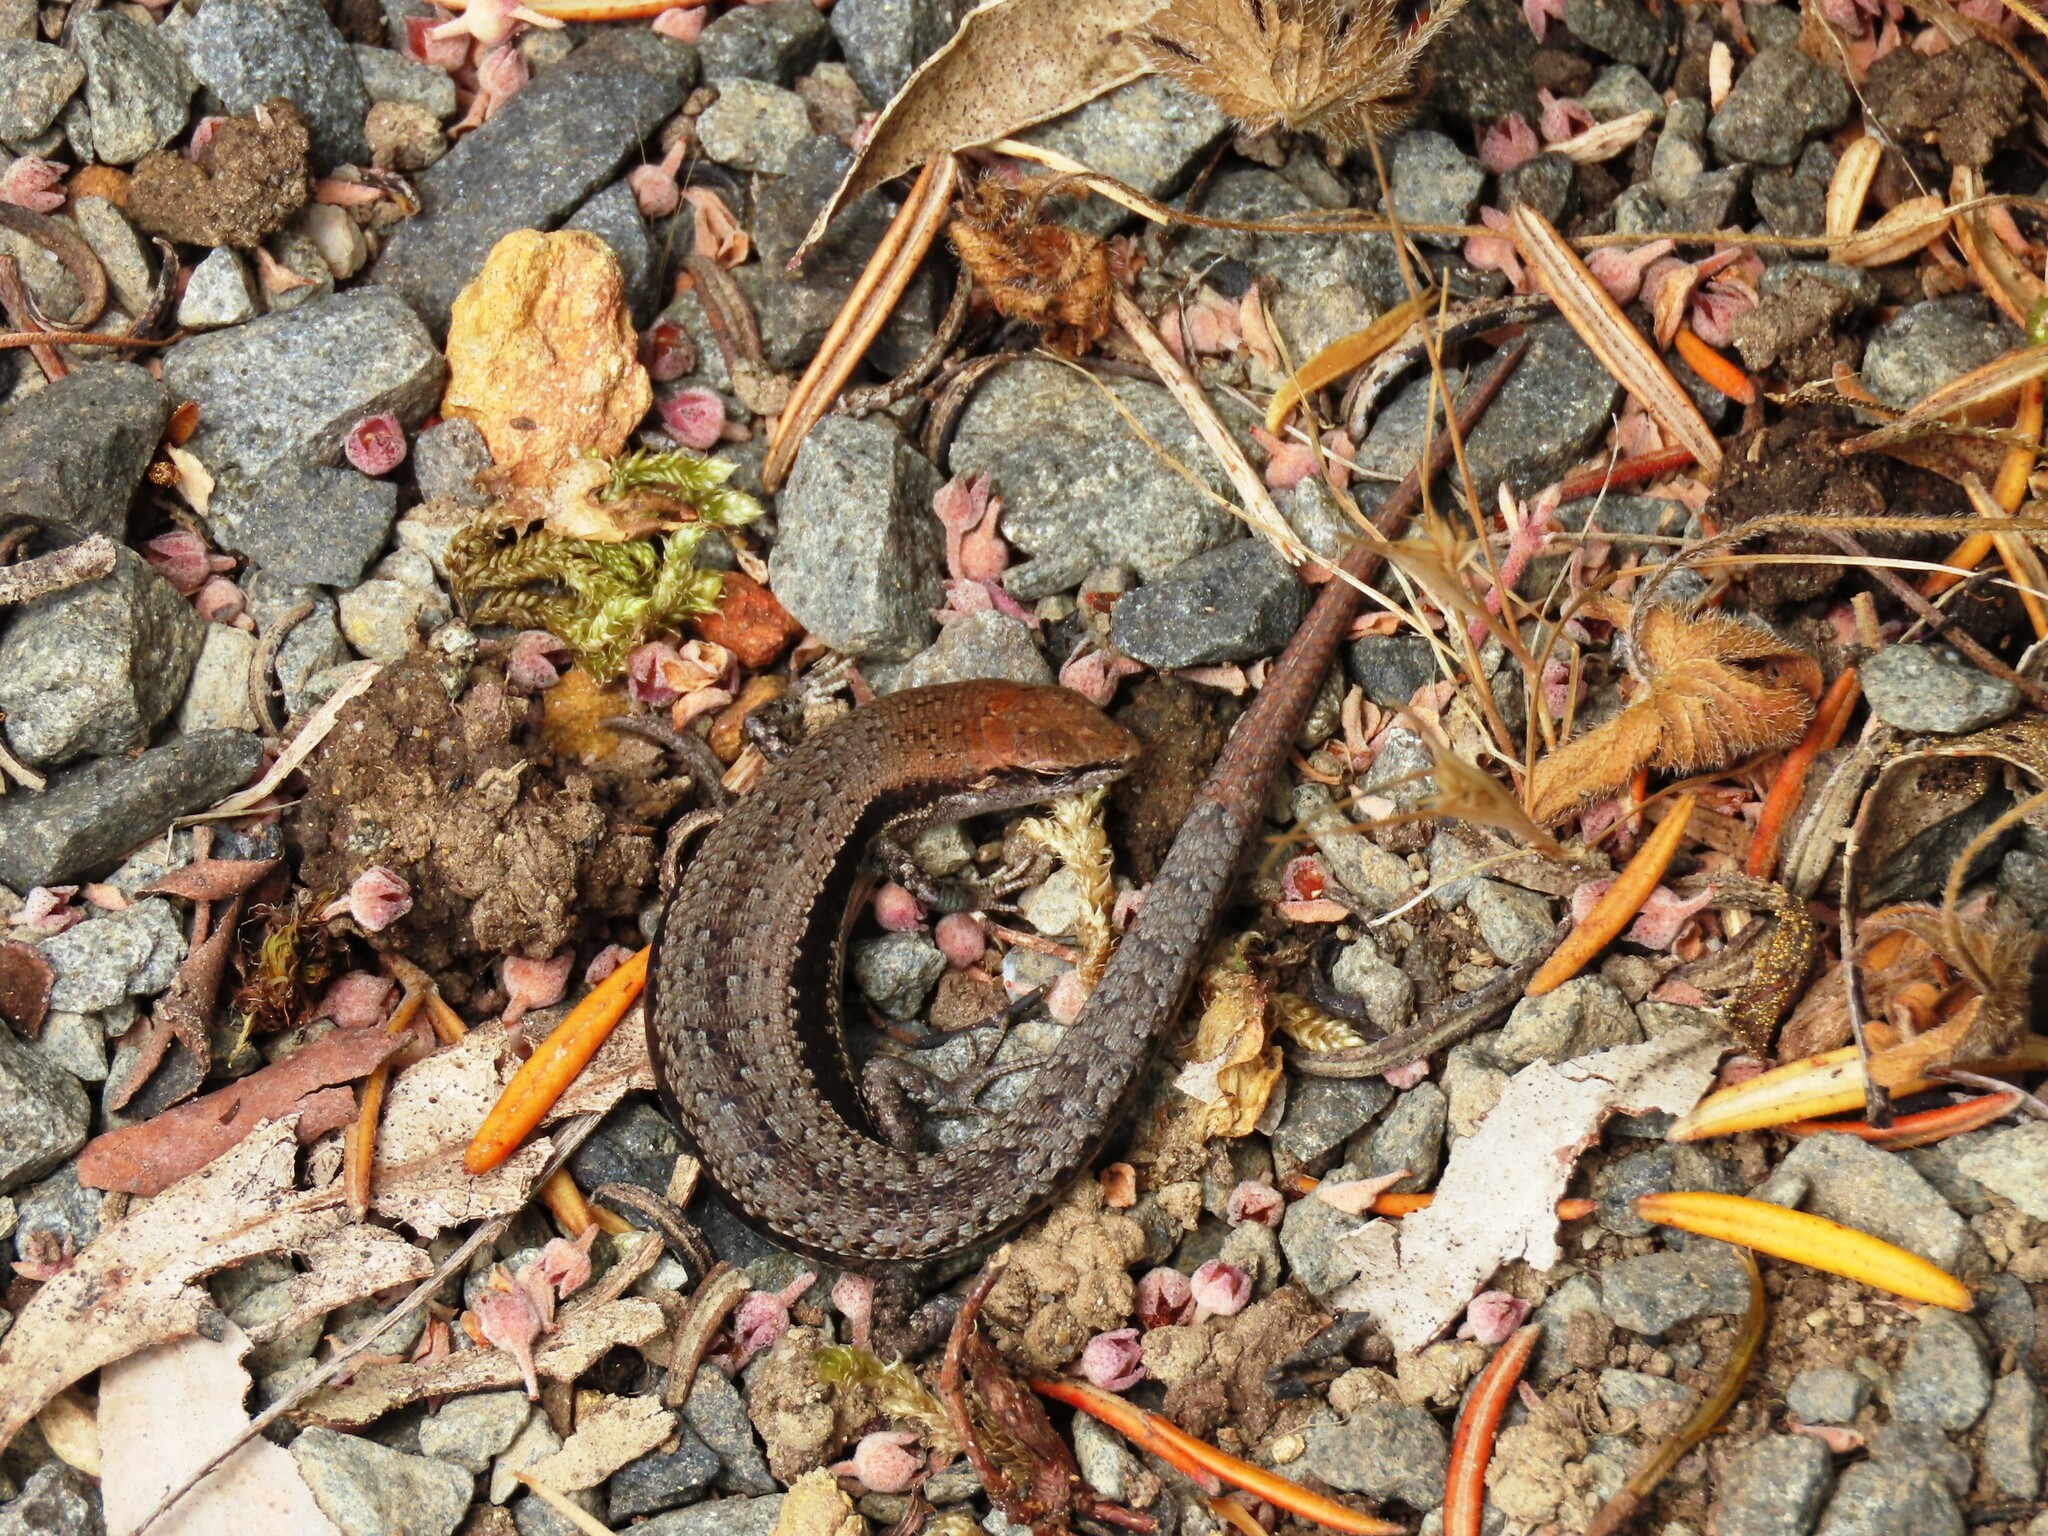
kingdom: Animalia
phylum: Chordata
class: Squamata
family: Scincidae
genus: Lampropholis
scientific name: Lampropholis guichenoti
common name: Garden skink
